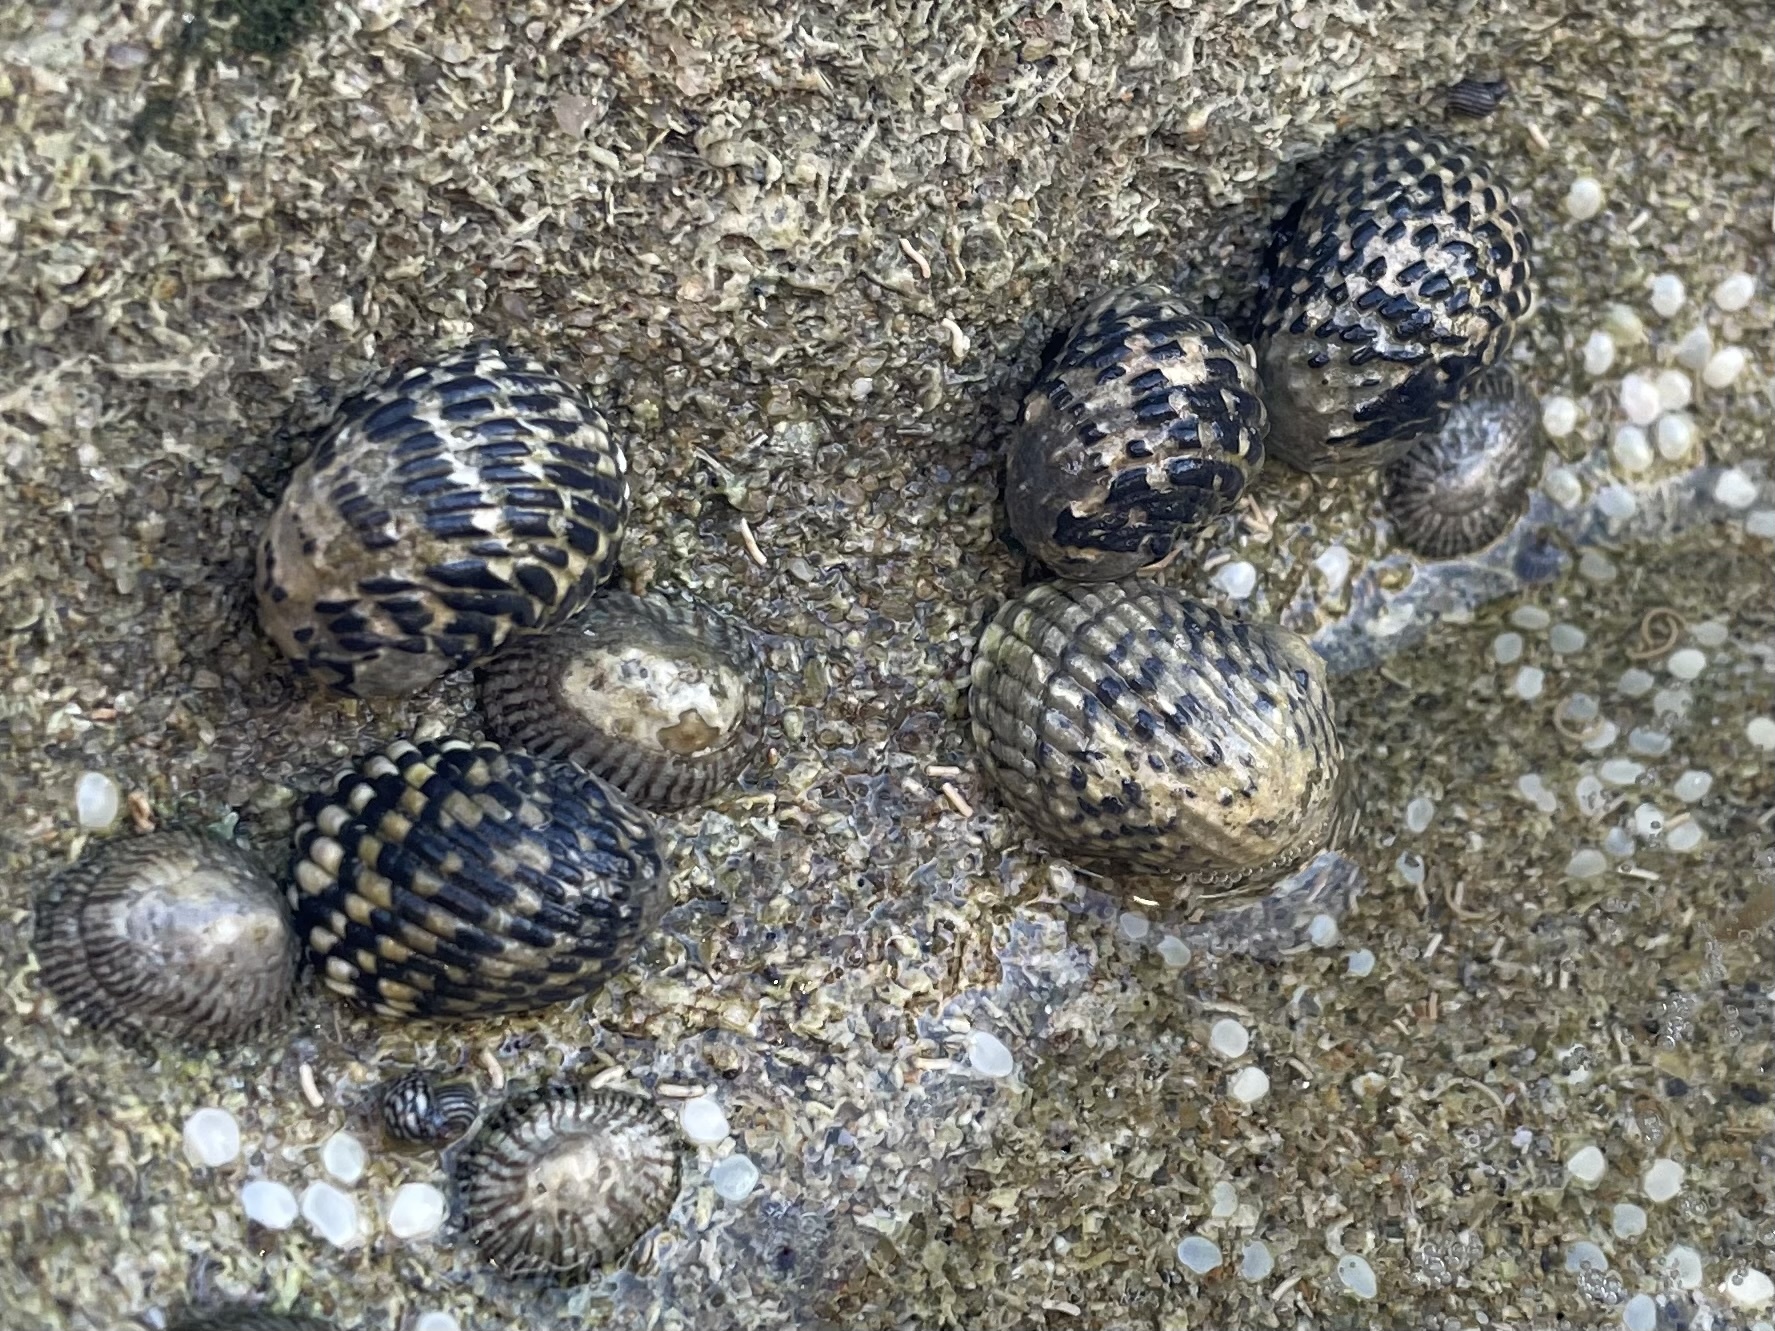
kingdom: Animalia
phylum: Mollusca
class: Gastropoda
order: Cycloneritida
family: Neritidae
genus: Nerita
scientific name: Nerita tessellata
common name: Checkered nerite
